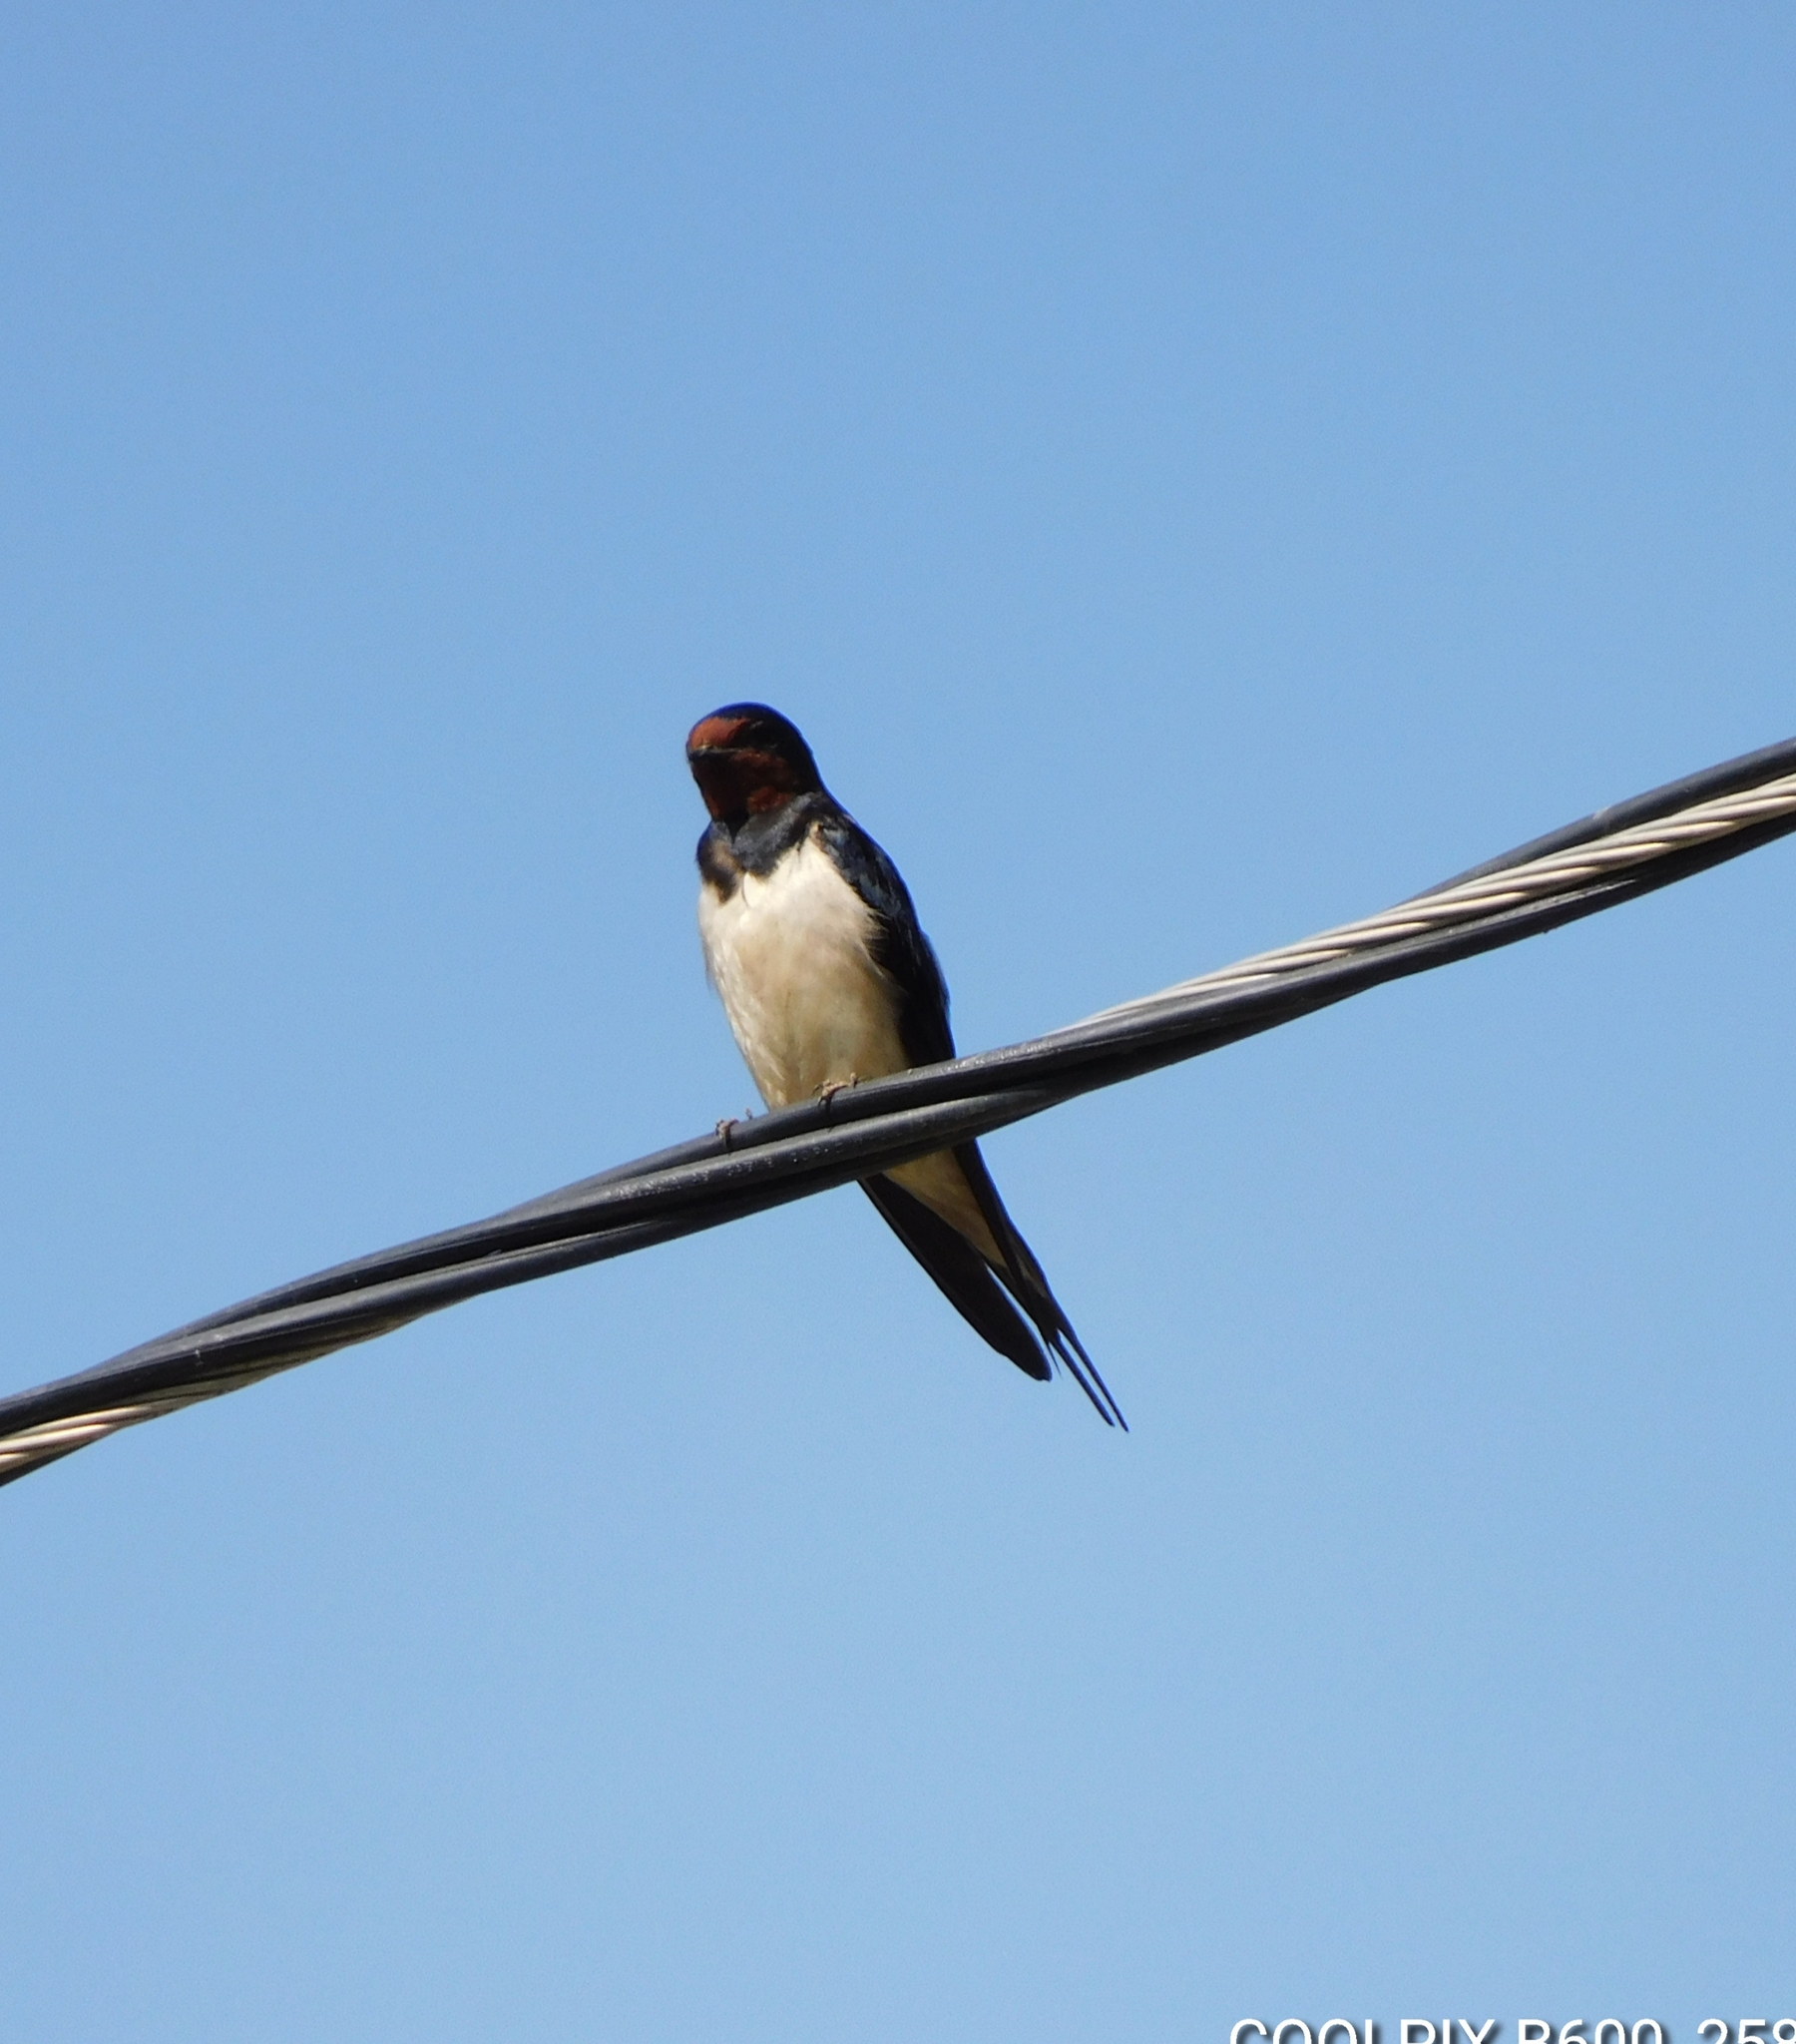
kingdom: Animalia
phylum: Chordata
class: Aves
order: Passeriformes
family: Hirundinidae
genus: Hirundo
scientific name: Hirundo rustica
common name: Barn swallow
